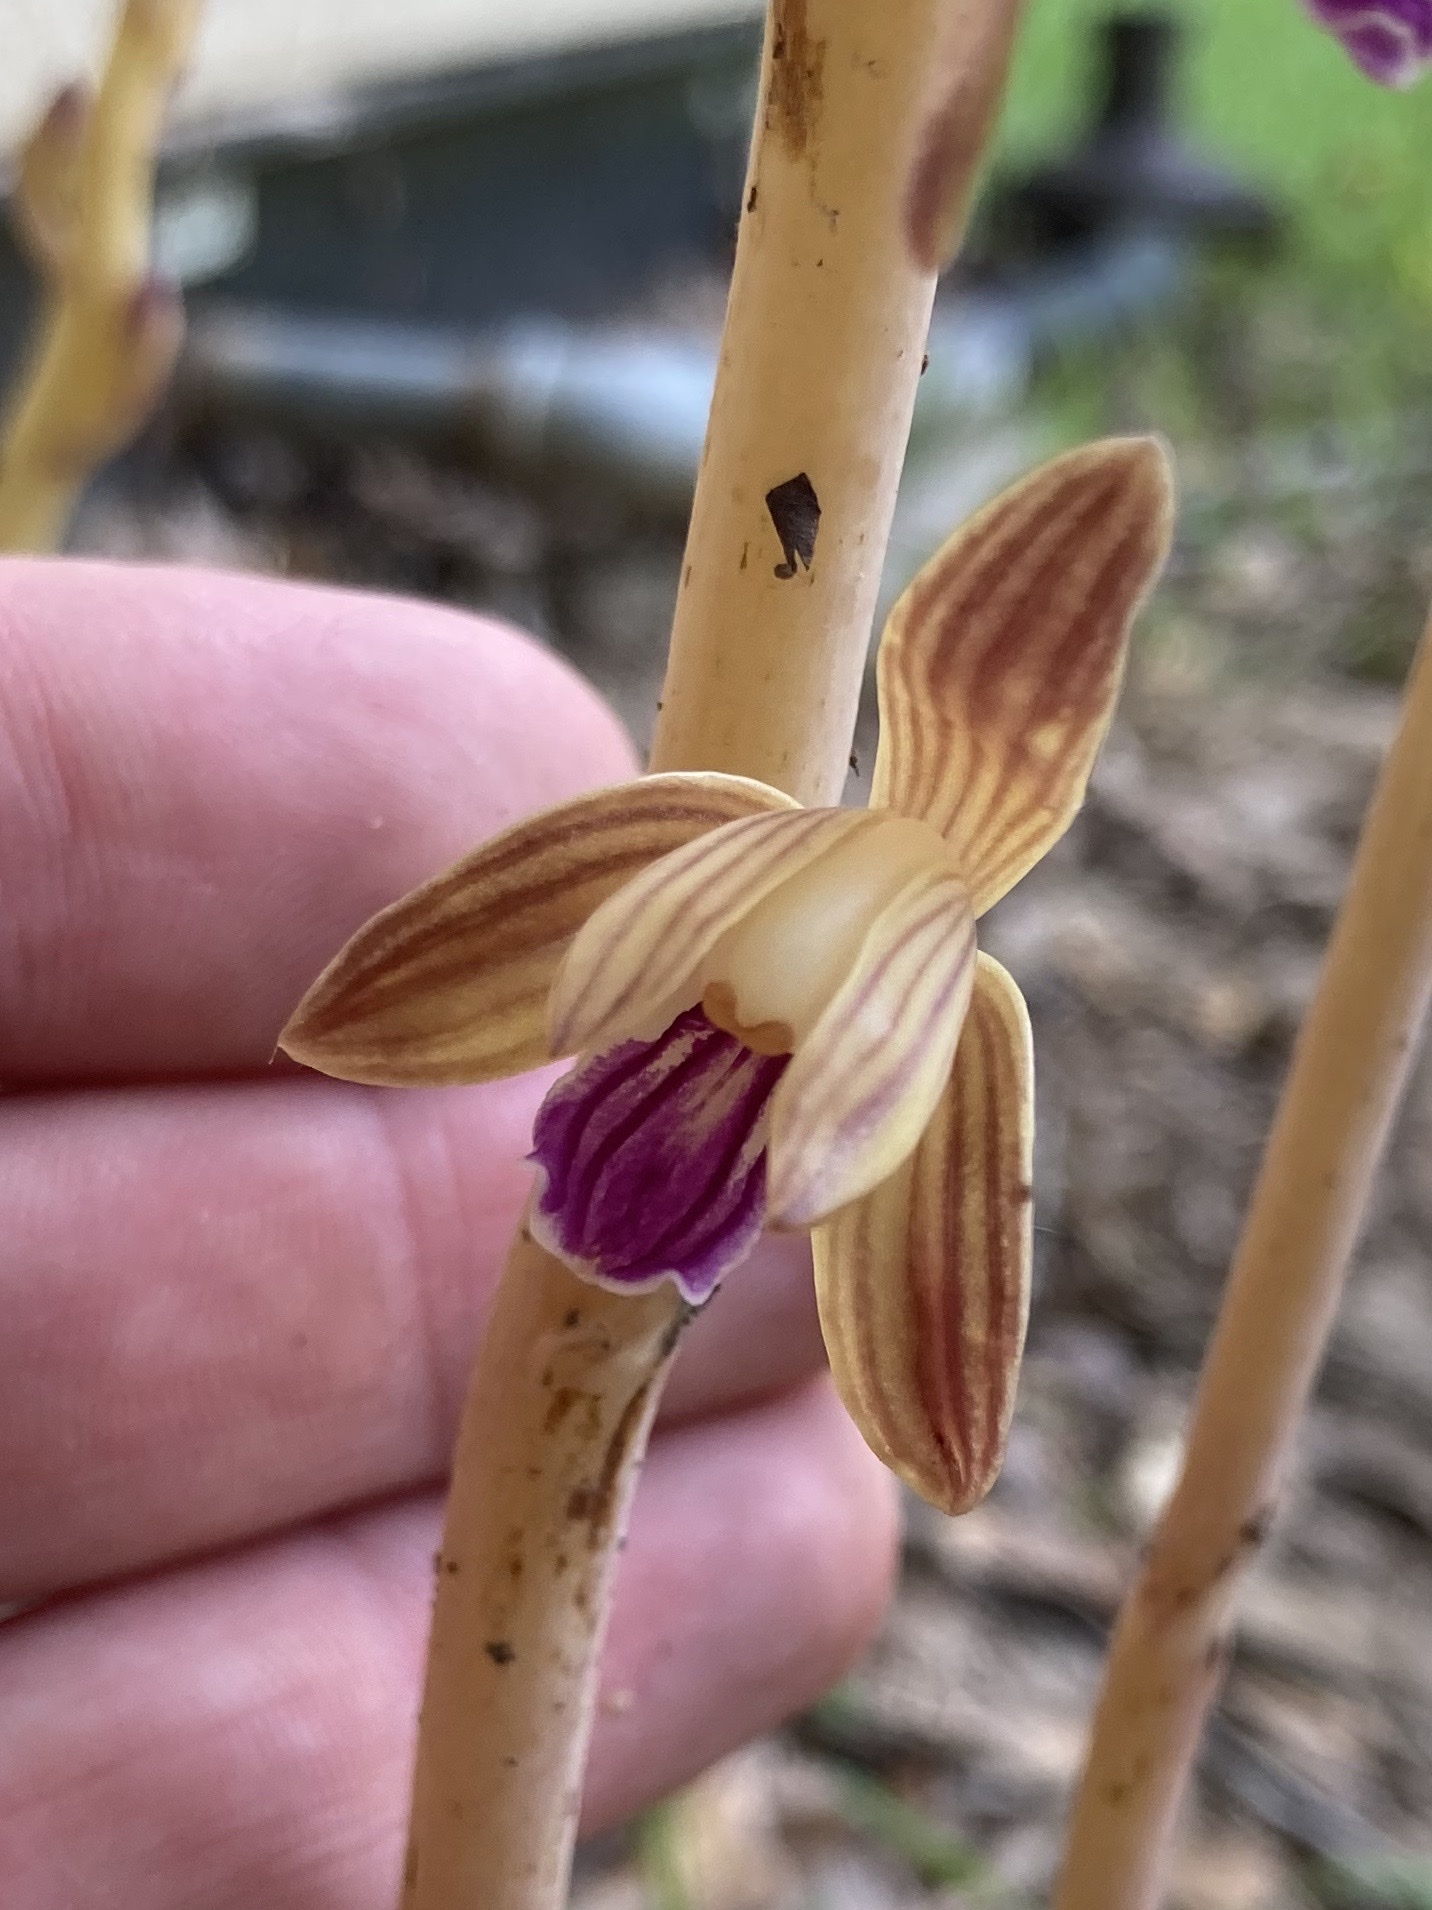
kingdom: Plantae
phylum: Tracheophyta
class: Liliopsida
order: Asparagales
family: Orchidaceae
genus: Bletia
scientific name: Bletia spicata
